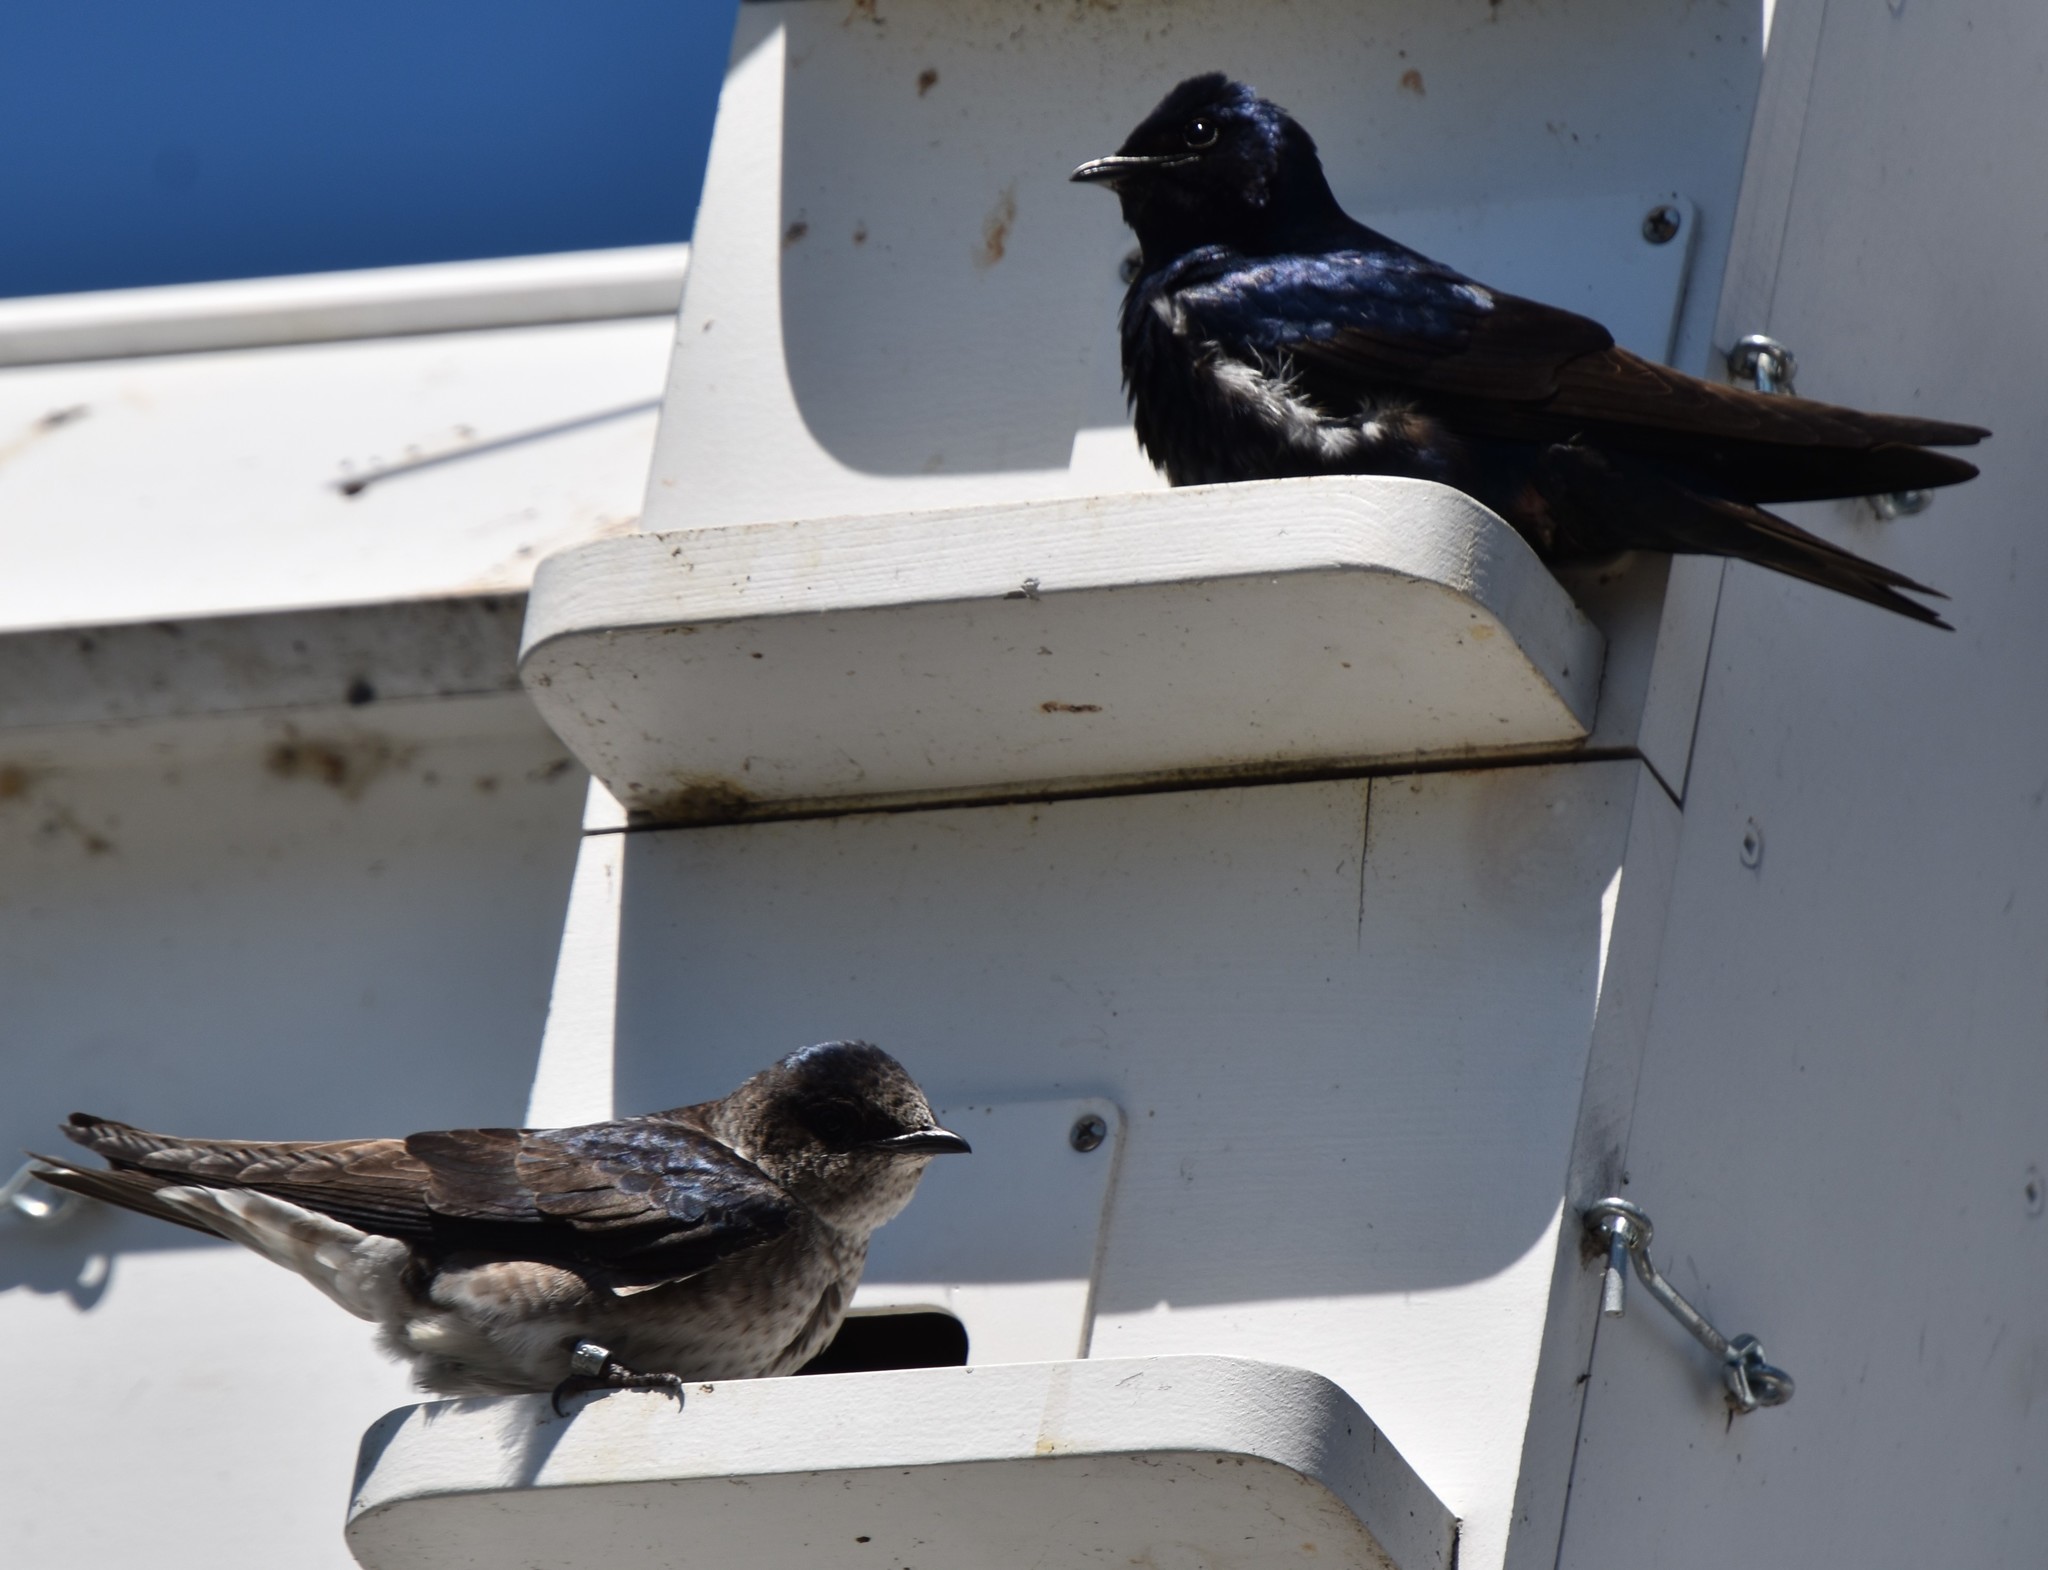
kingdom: Animalia
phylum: Chordata
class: Aves
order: Passeriformes
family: Hirundinidae
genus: Progne
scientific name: Progne subis
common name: Purple martin
